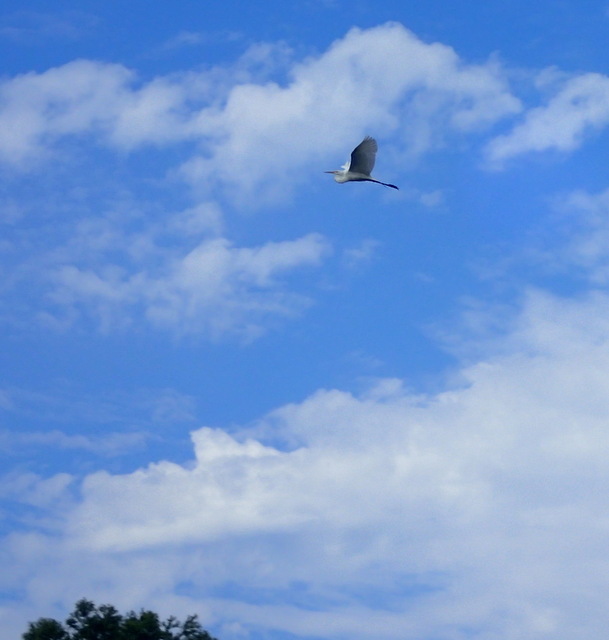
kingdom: Animalia
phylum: Chordata
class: Aves
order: Pelecaniformes
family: Ardeidae
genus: Ardea
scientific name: Ardea alba
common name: Great egret
